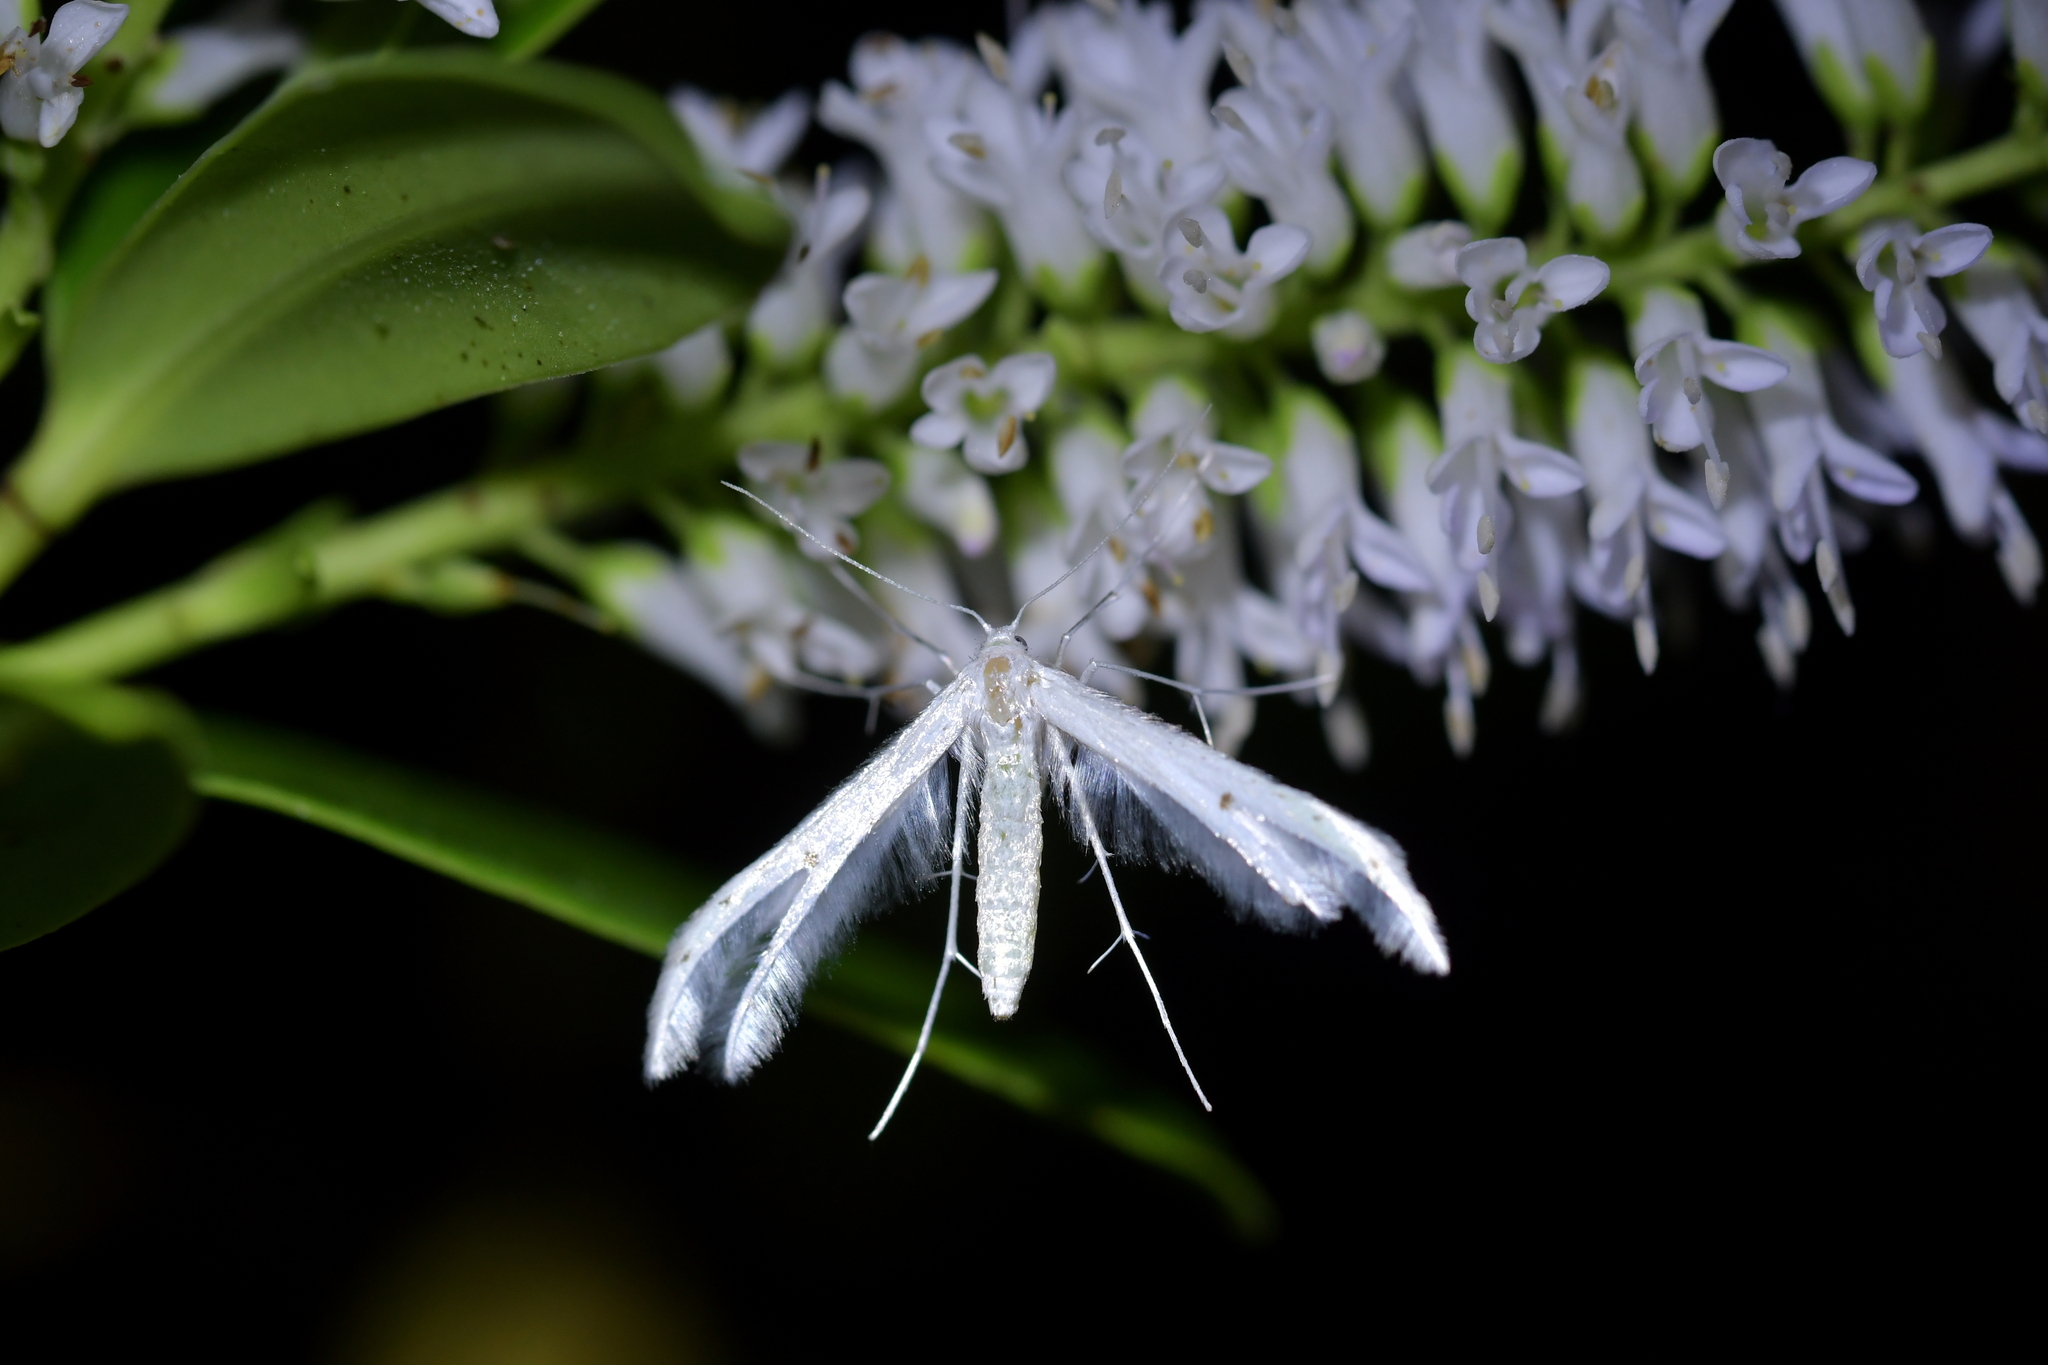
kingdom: Animalia
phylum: Arthropoda
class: Insecta
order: Lepidoptera
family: Pterophoridae
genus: Pterophorus
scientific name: Pterophorus monospilalis
